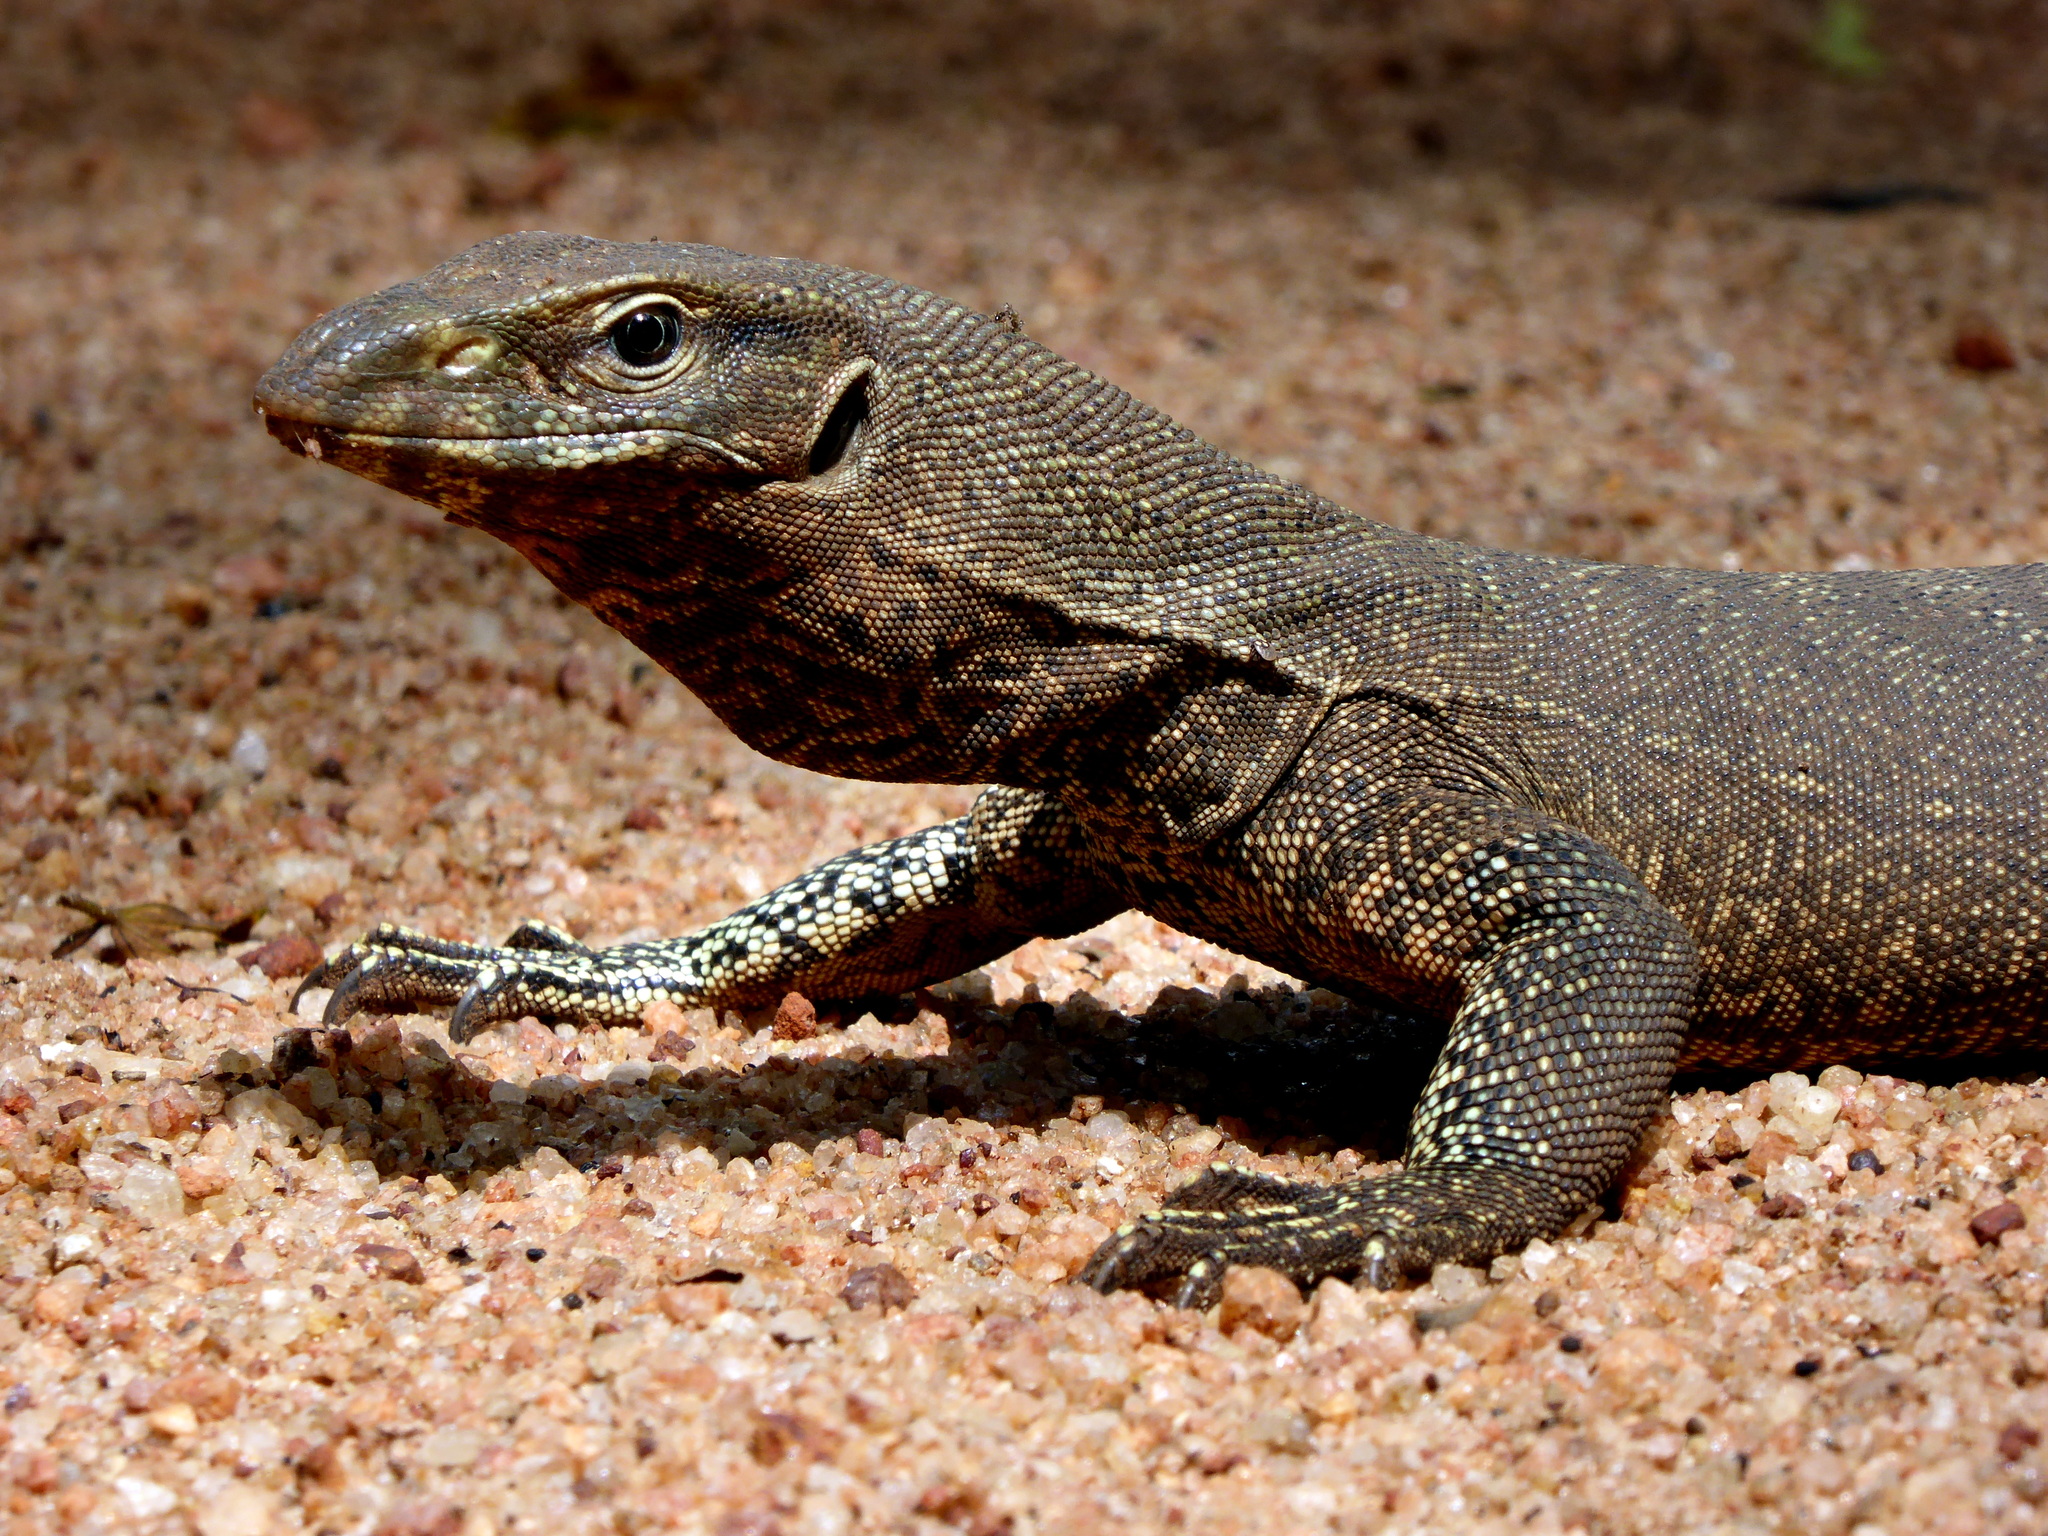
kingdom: Animalia
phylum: Chordata
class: Squamata
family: Varanidae
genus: Varanus
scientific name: Varanus bengalensis
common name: Bengal monitor
